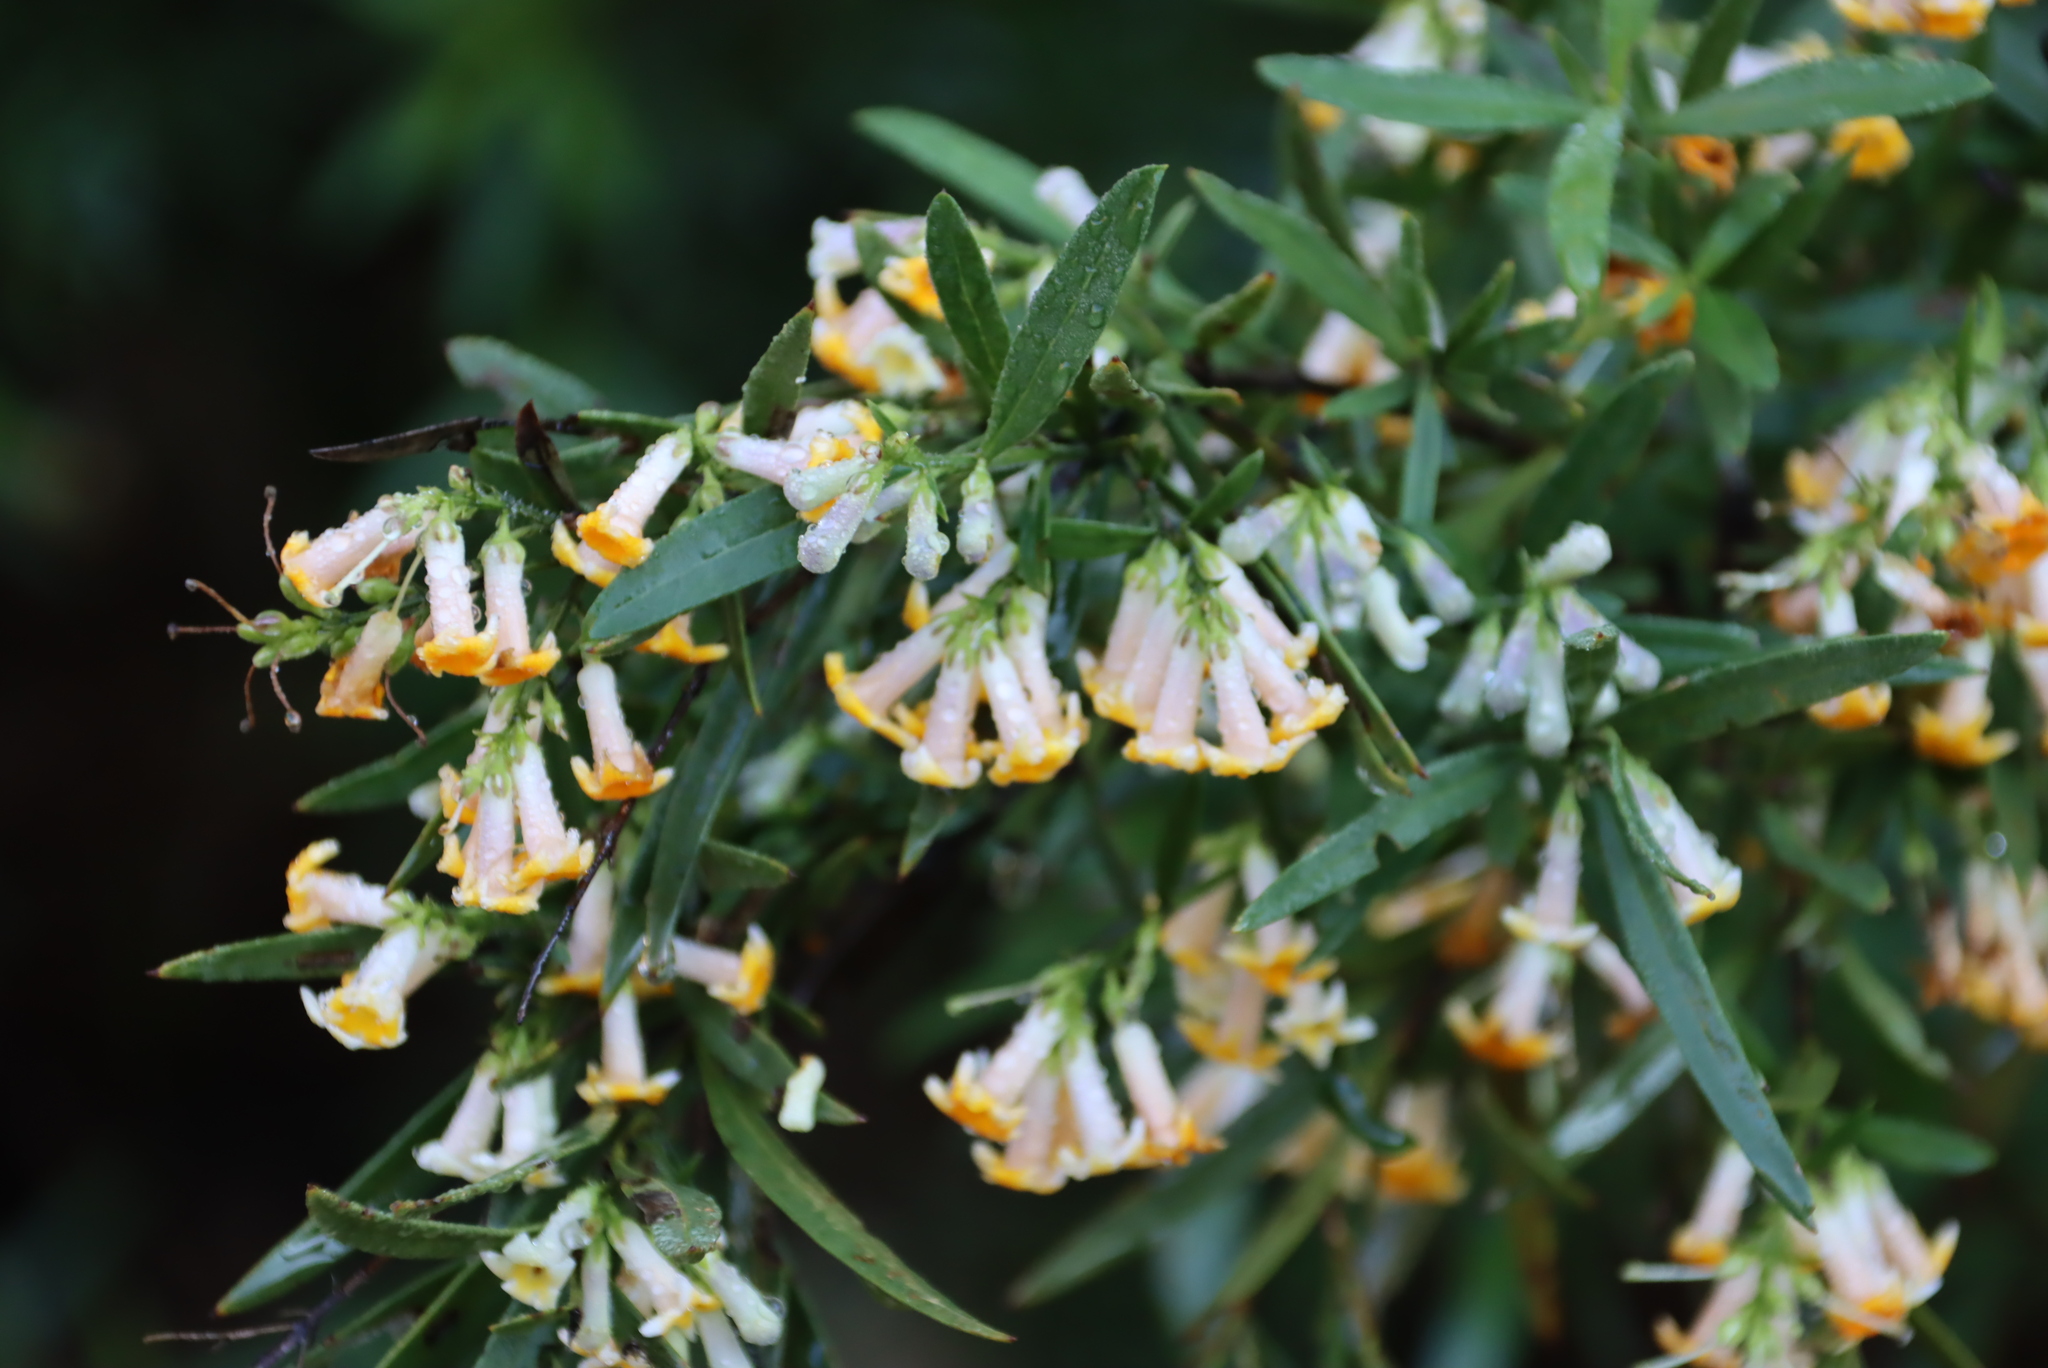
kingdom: Plantae
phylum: Tracheophyta
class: Magnoliopsida
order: Lamiales
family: Scrophulariaceae
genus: Freylinia
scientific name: Freylinia lanceolata
